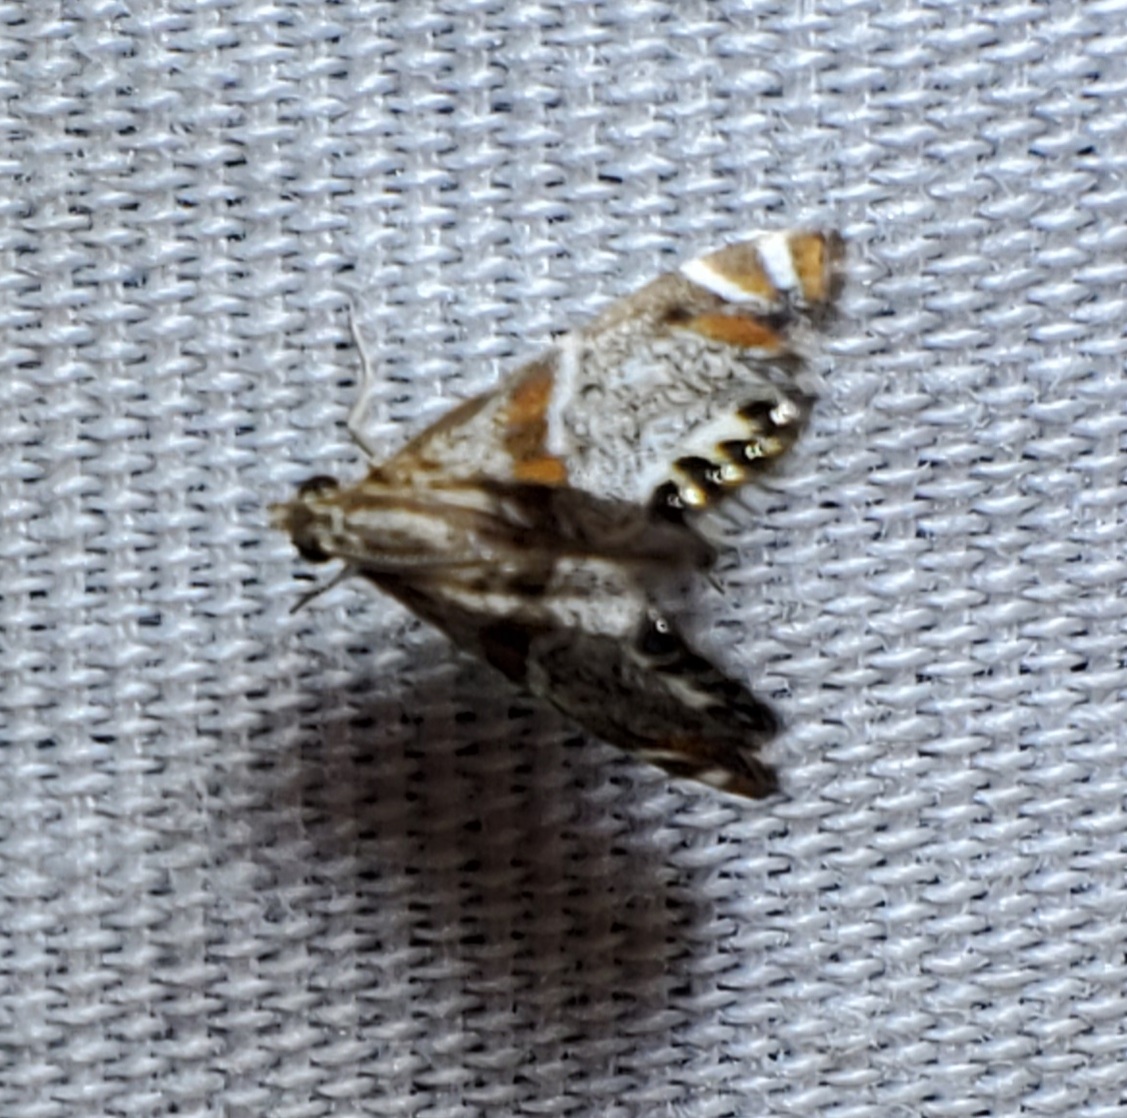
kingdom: Animalia
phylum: Arthropoda
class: Insecta
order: Lepidoptera
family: Crambidae
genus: Petrophila
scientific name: Petrophila jaliscalis
